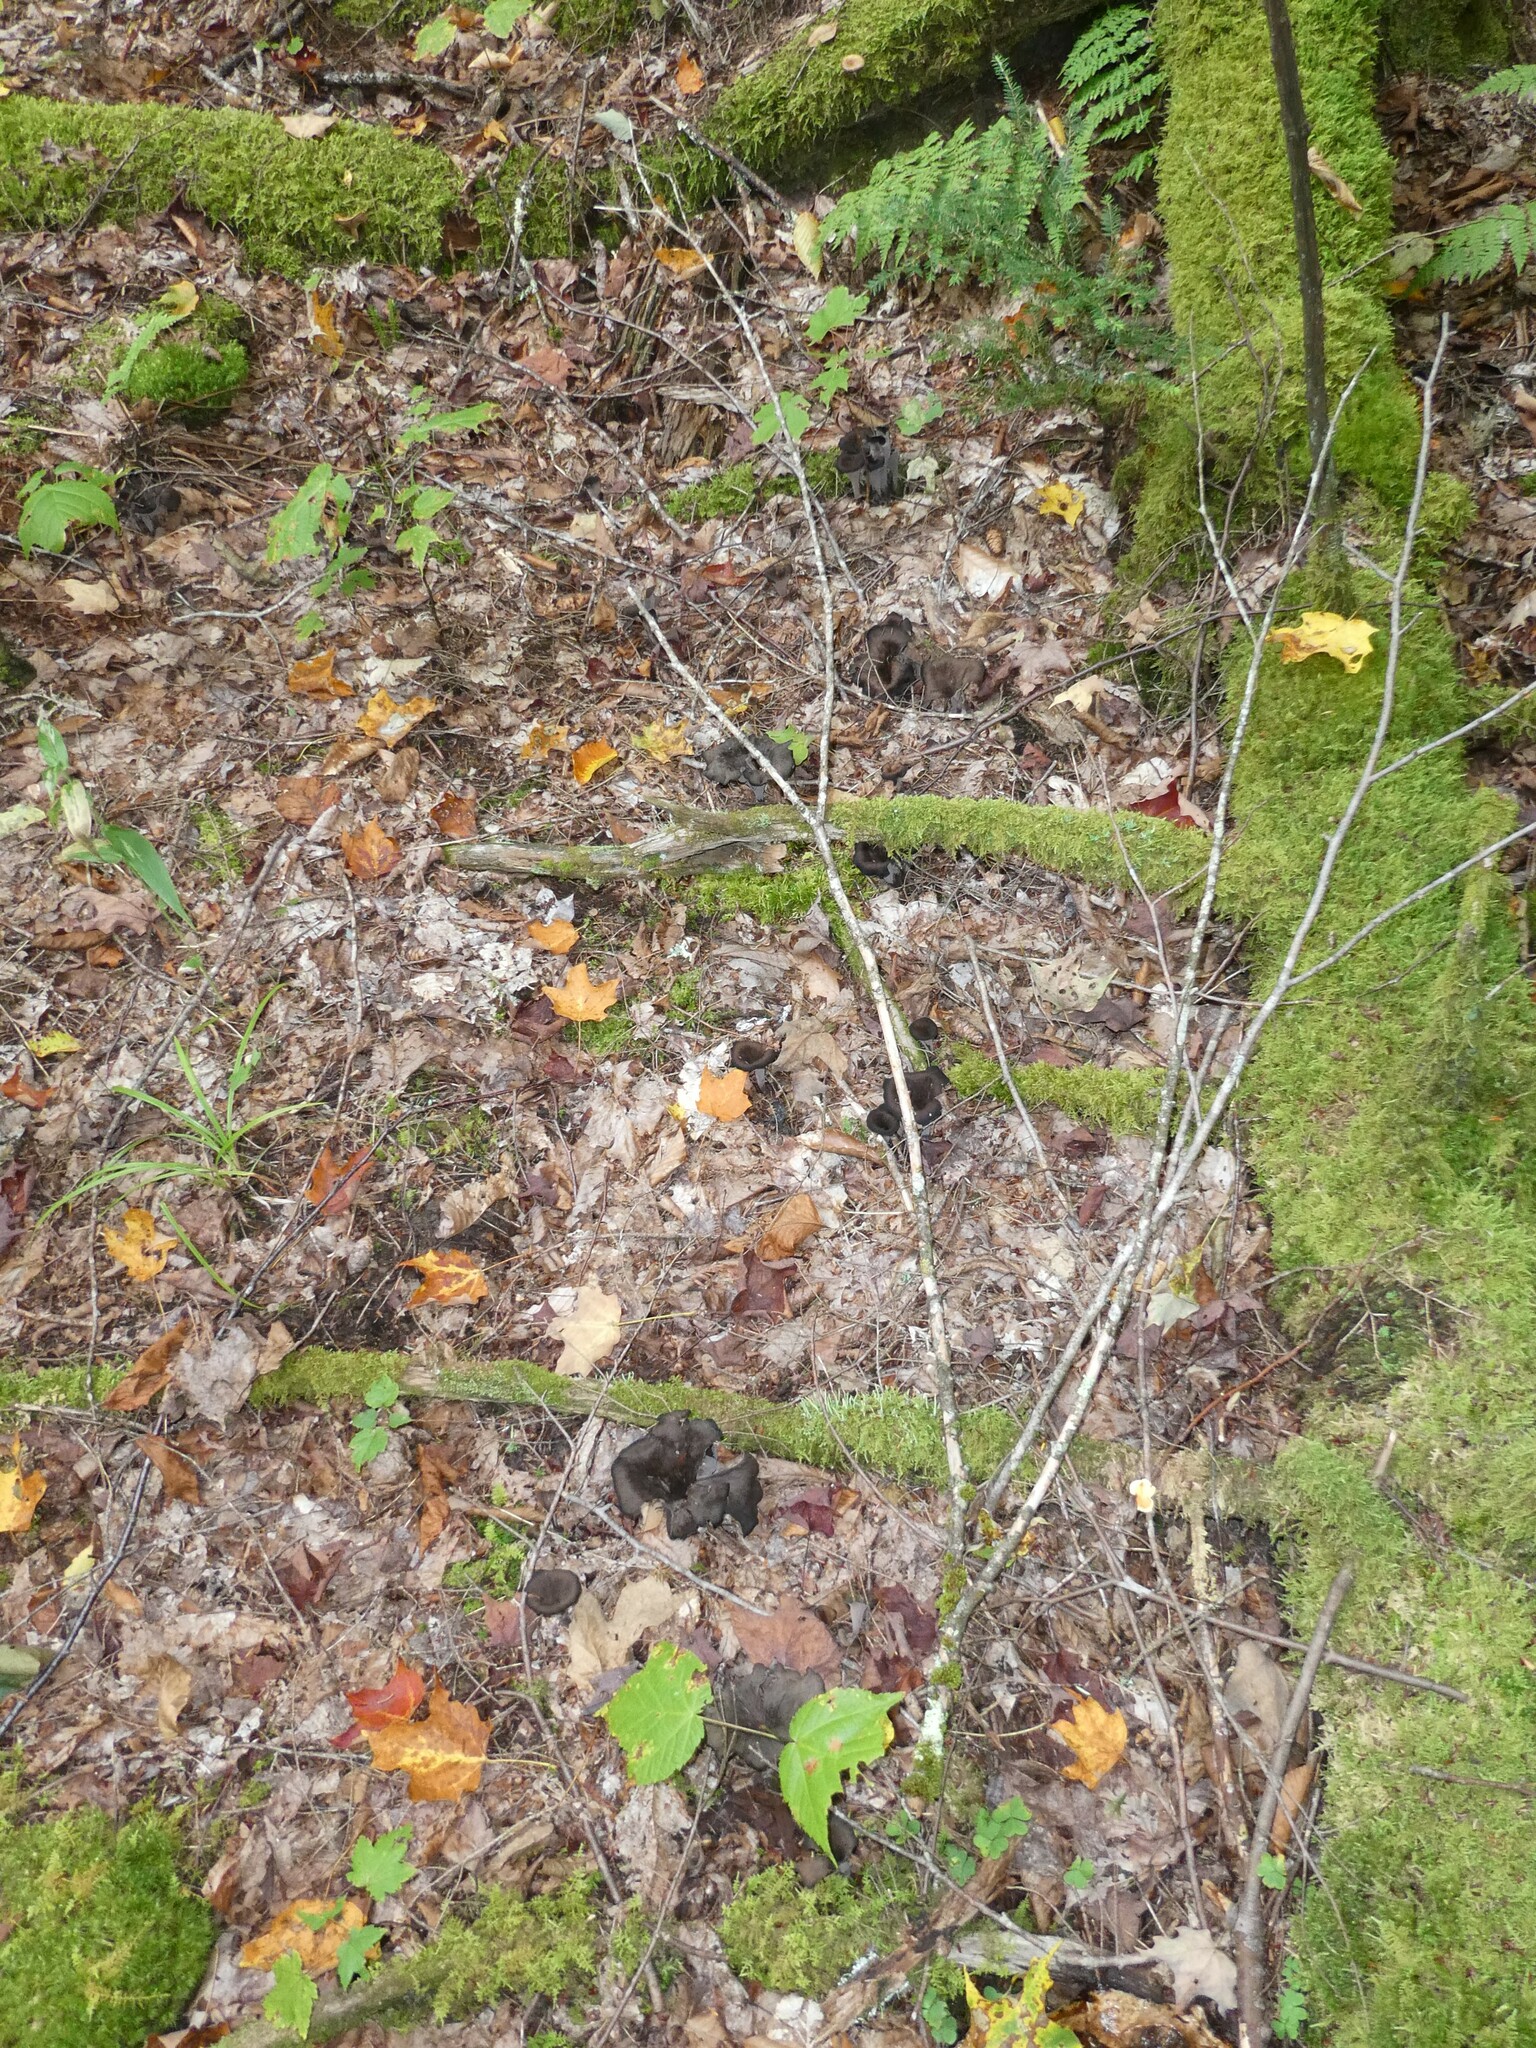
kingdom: Fungi
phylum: Basidiomycota
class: Agaricomycetes
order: Cantharellales
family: Hydnaceae
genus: Craterellus
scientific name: Craterellus cornucopioides
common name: Horn of plenty
